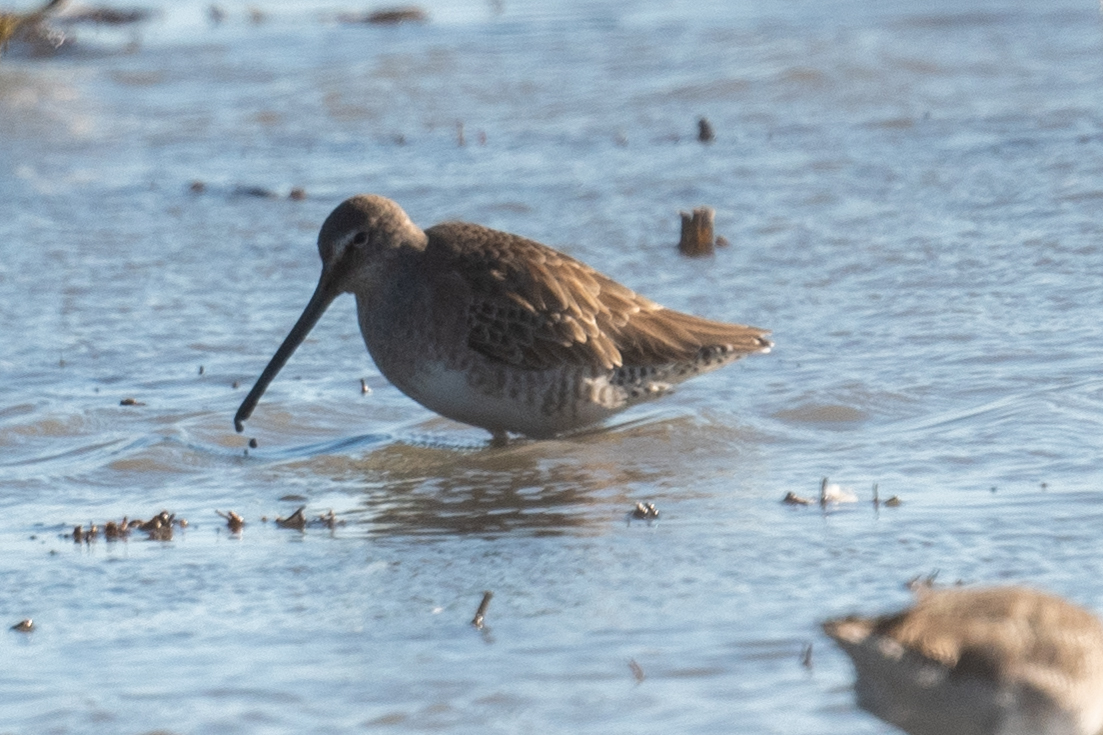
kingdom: Animalia
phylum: Chordata
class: Aves
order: Charadriiformes
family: Scolopacidae
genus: Limnodromus
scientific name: Limnodromus scolopaceus
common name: Long-billed dowitcher
